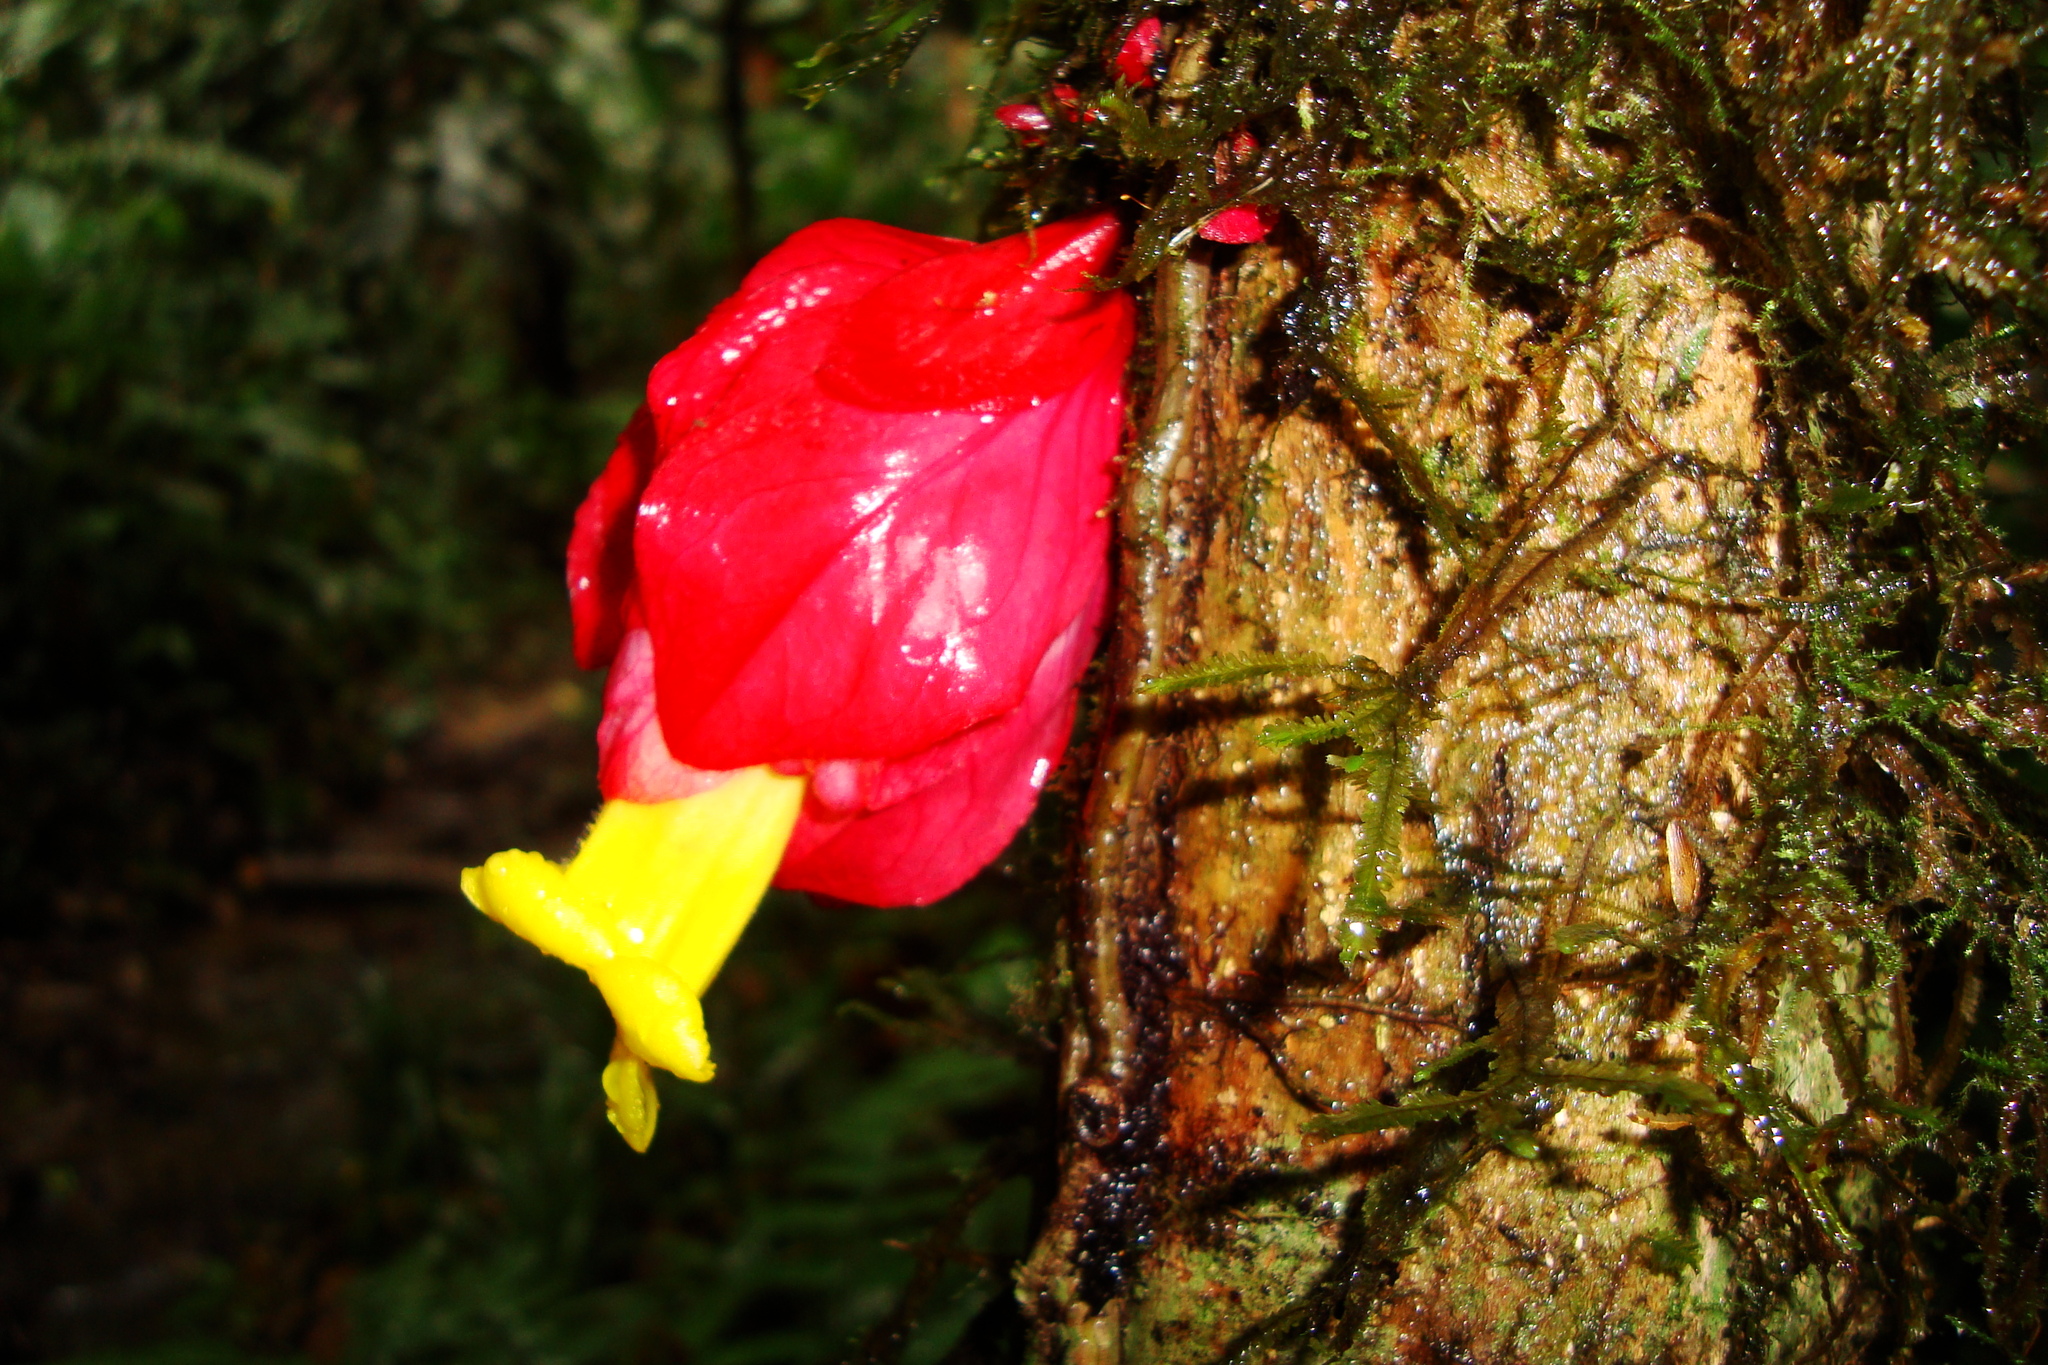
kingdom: Plantae
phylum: Tracheophyta
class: Magnoliopsida
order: Lamiales
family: Gesneriaceae
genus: Drymonia
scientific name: Drymonia coccinea
